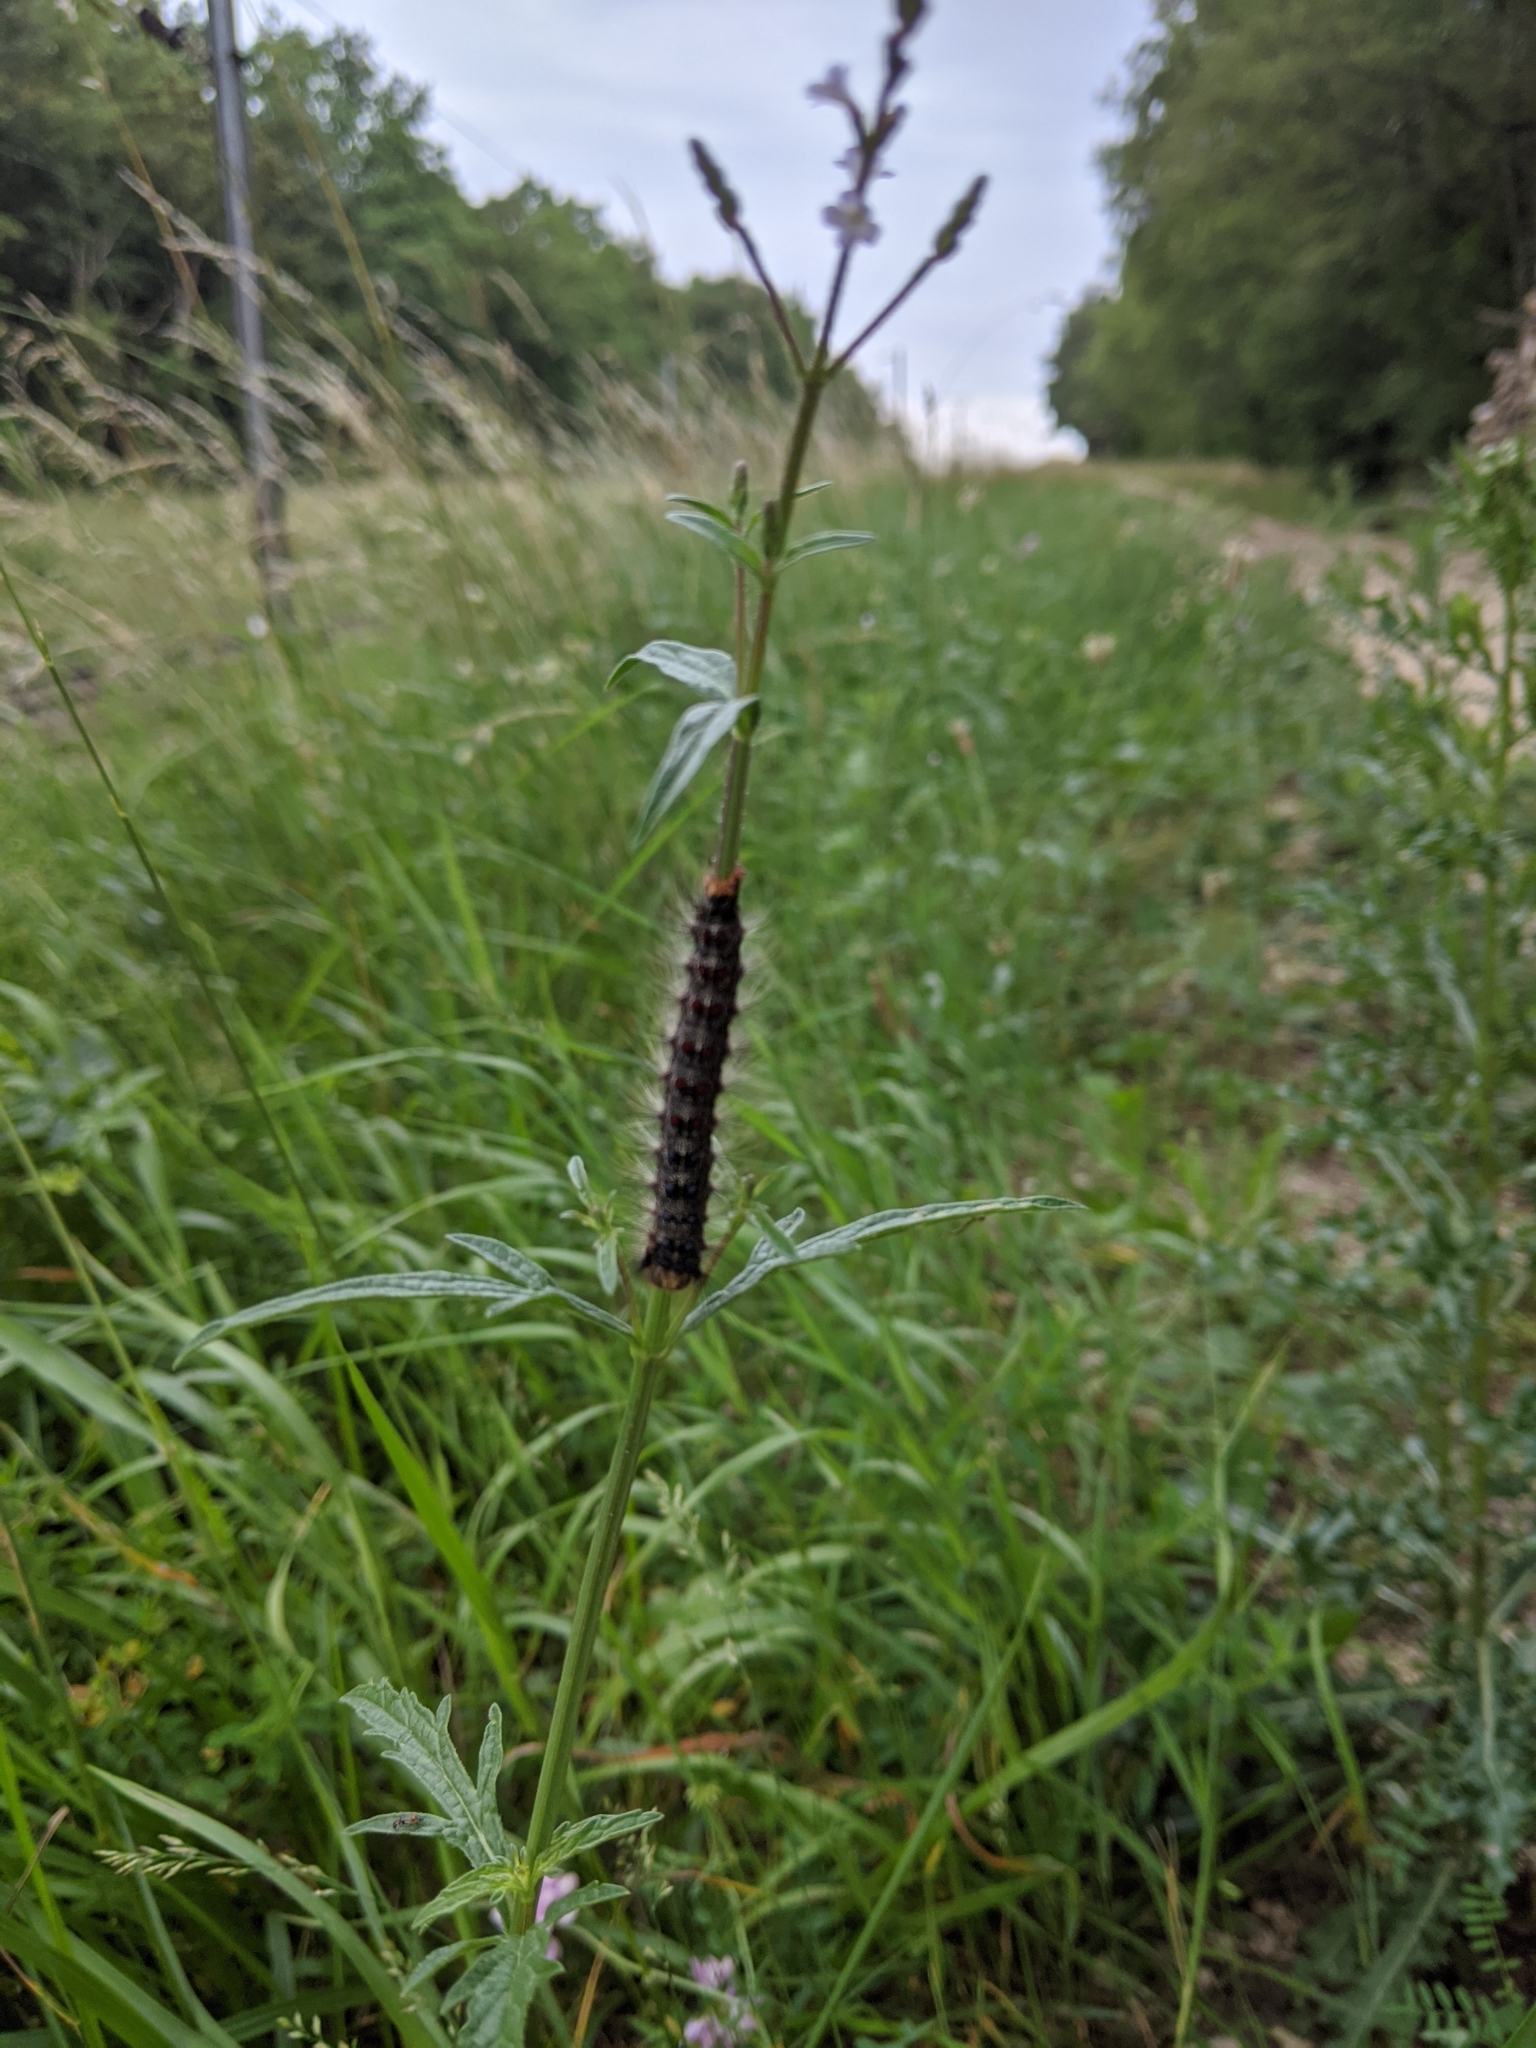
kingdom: Animalia
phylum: Arthropoda
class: Insecta
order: Lepidoptera
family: Erebidae
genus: Lymantria
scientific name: Lymantria dispar
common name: Gypsy moth
